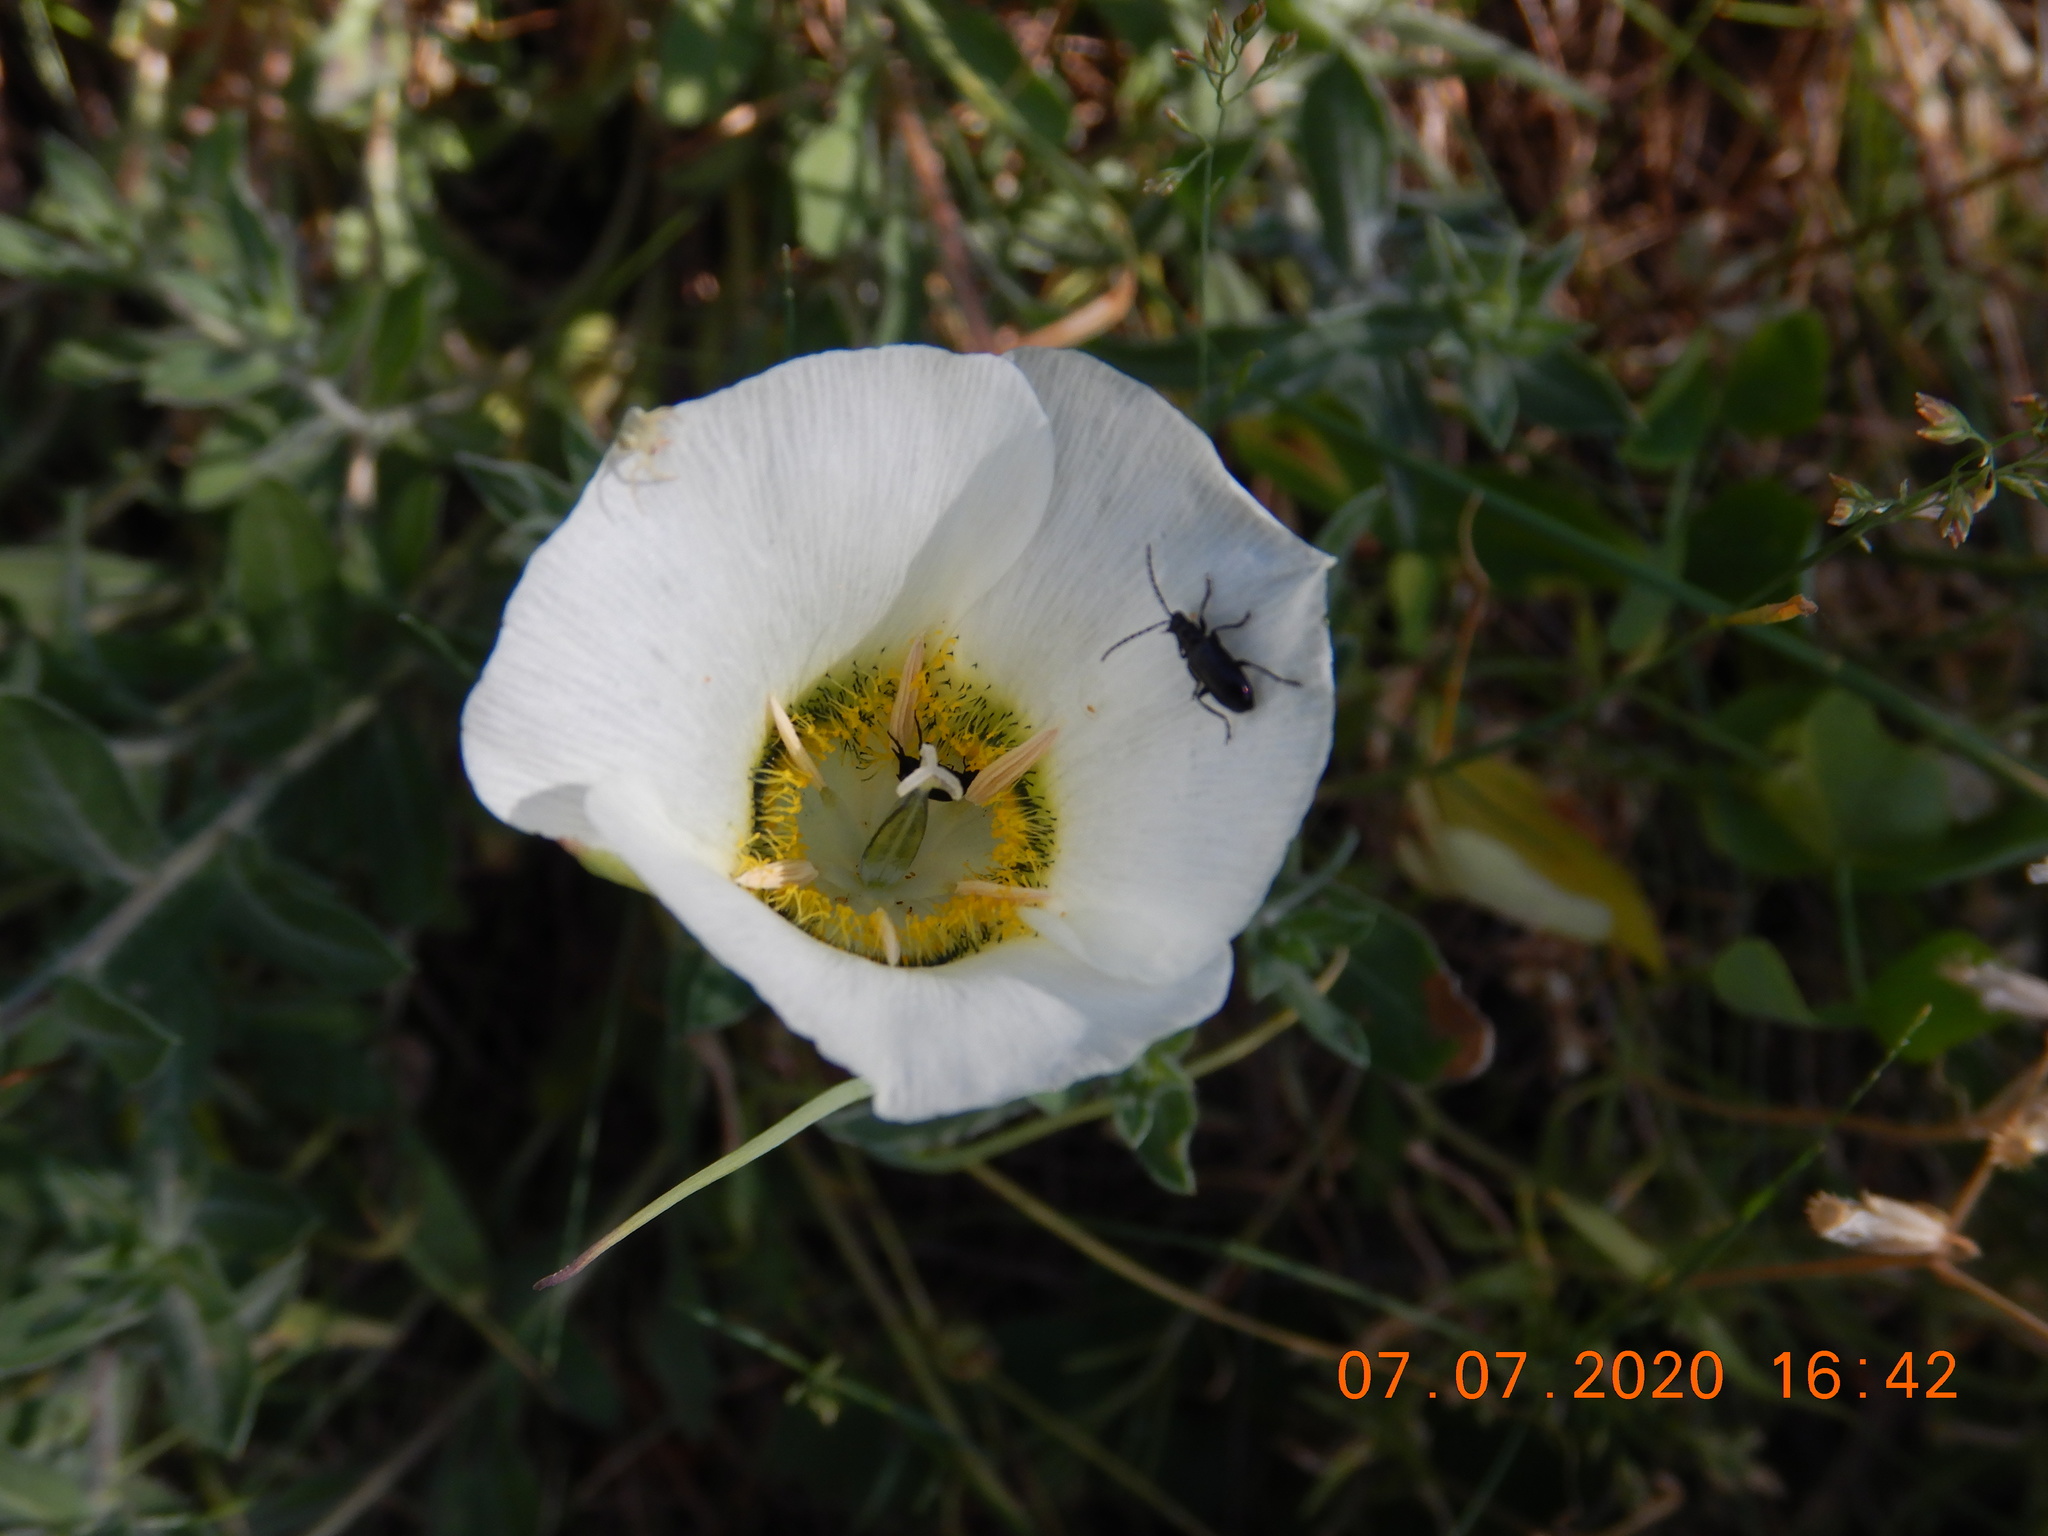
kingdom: Plantae
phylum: Tracheophyta
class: Liliopsida
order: Liliales
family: Liliaceae
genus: Calochortus
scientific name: Calochortus gunnisonii
